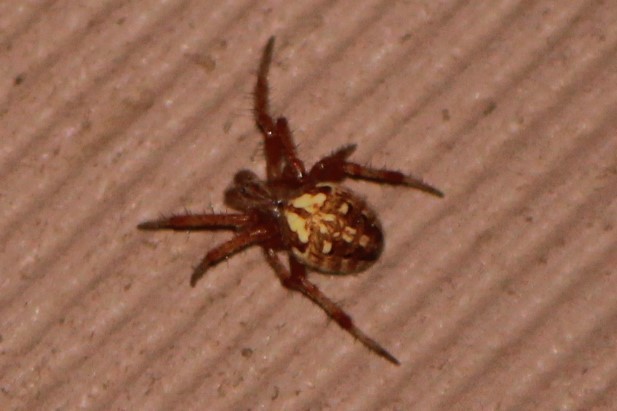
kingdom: Animalia
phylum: Arthropoda
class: Arachnida
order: Araneae
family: Araneidae
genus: Neoscona
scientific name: Neoscona arabesca
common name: Orb weavers
